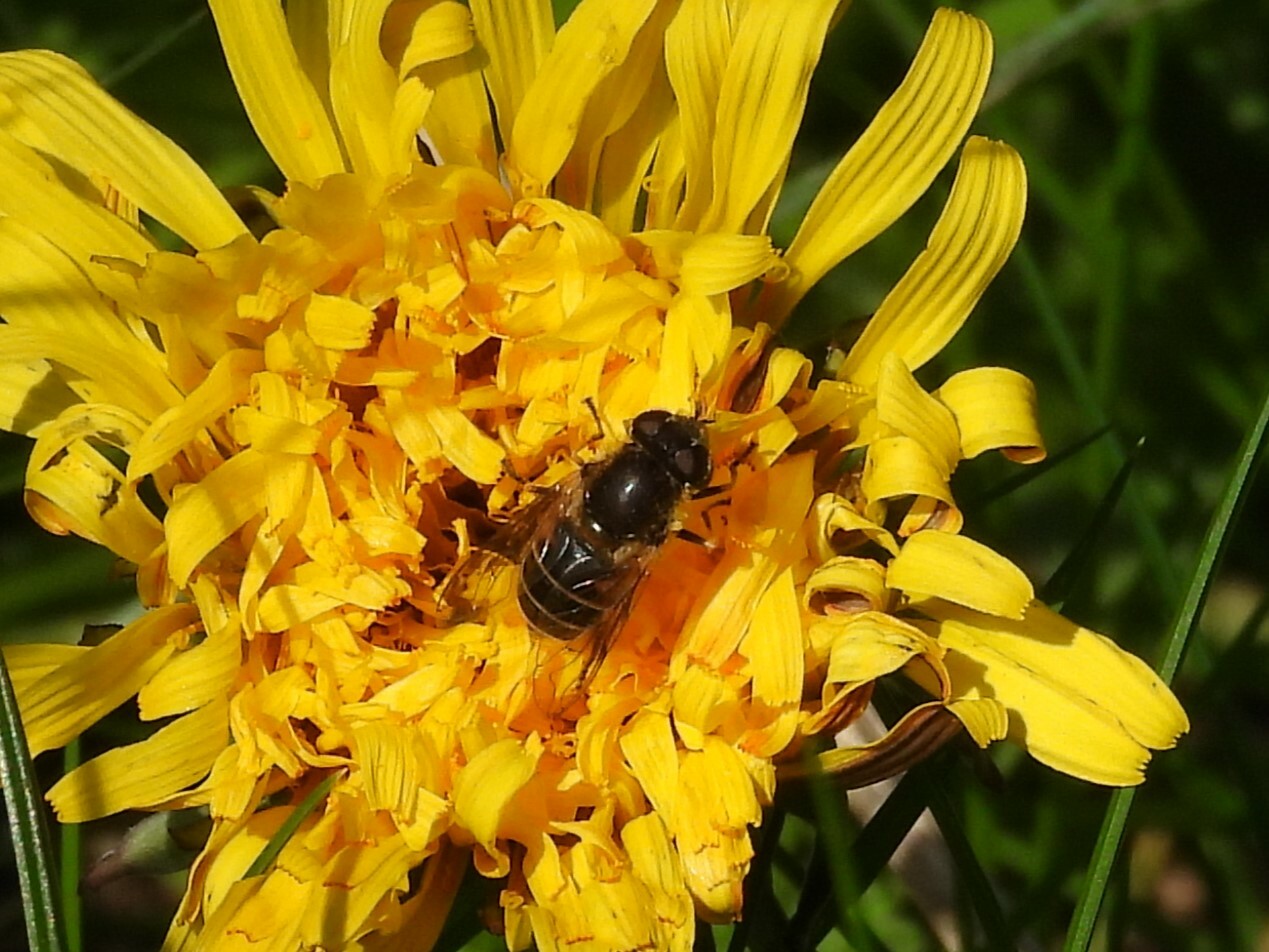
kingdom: Animalia
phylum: Arthropoda
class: Insecta
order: Diptera
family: Syrphidae
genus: Eoseristalis
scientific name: Eoseristalis
